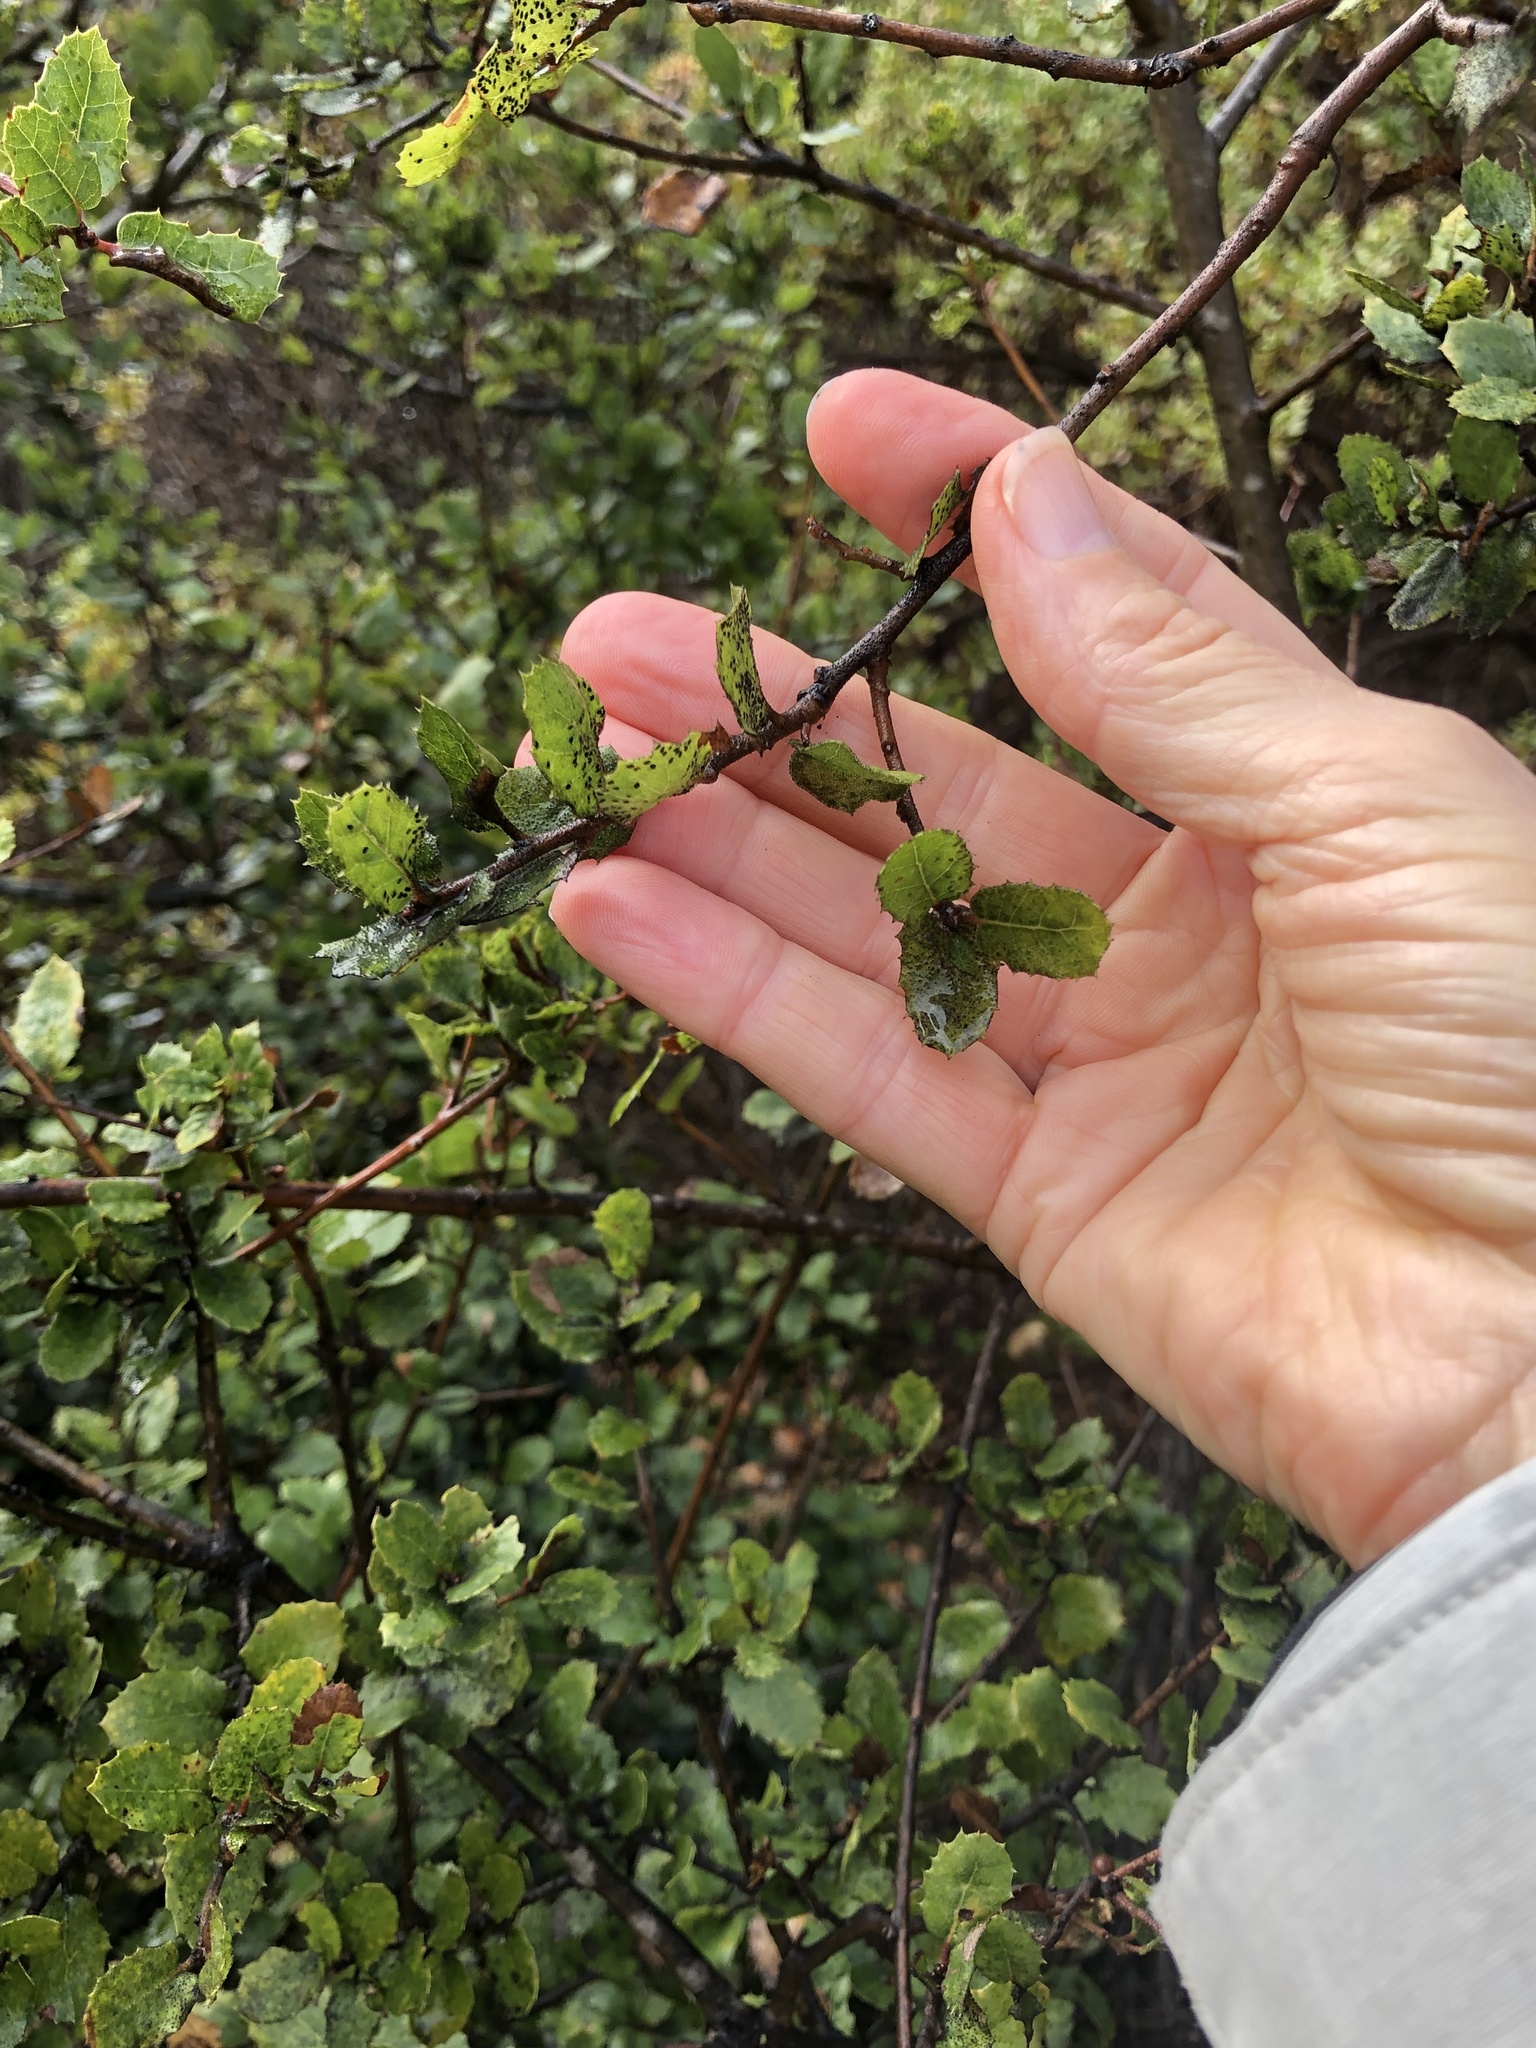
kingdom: Plantae
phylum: Tracheophyta
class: Magnoliopsida
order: Fagales
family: Fagaceae
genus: Quercus
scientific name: Quercus wislizeni
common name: Interior live oak
